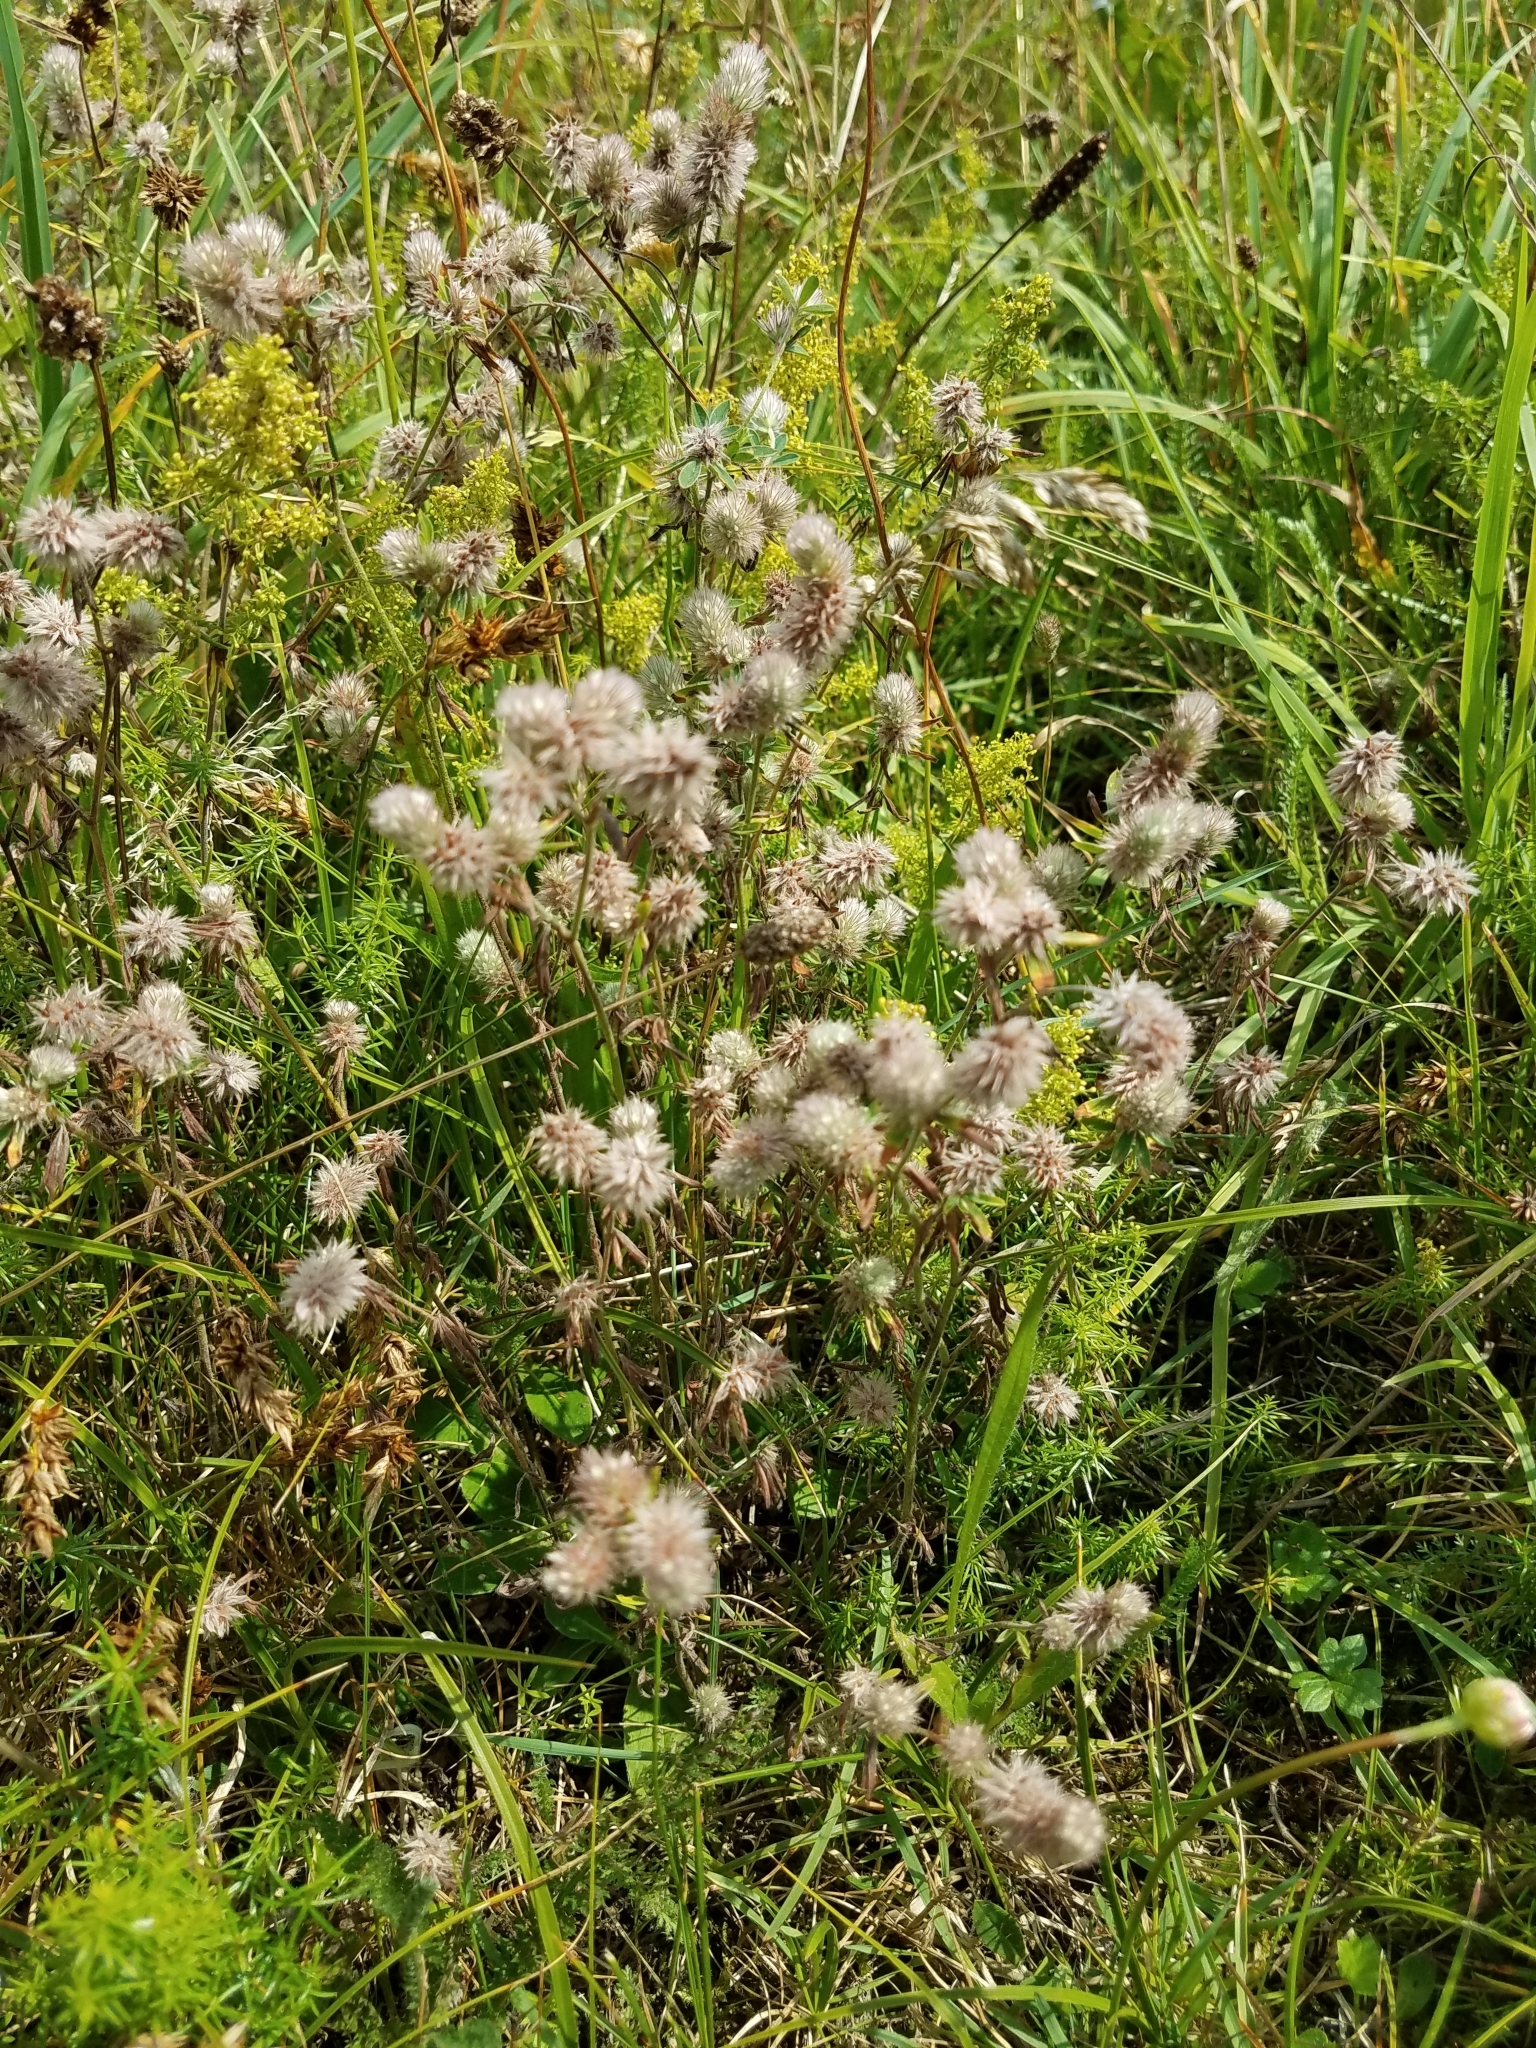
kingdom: Plantae
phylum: Tracheophyta
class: Magnoliopsida
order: Fabales
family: Fabaceae
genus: Trifolium
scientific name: Trifolium arvense
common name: Hare's-foot clover
